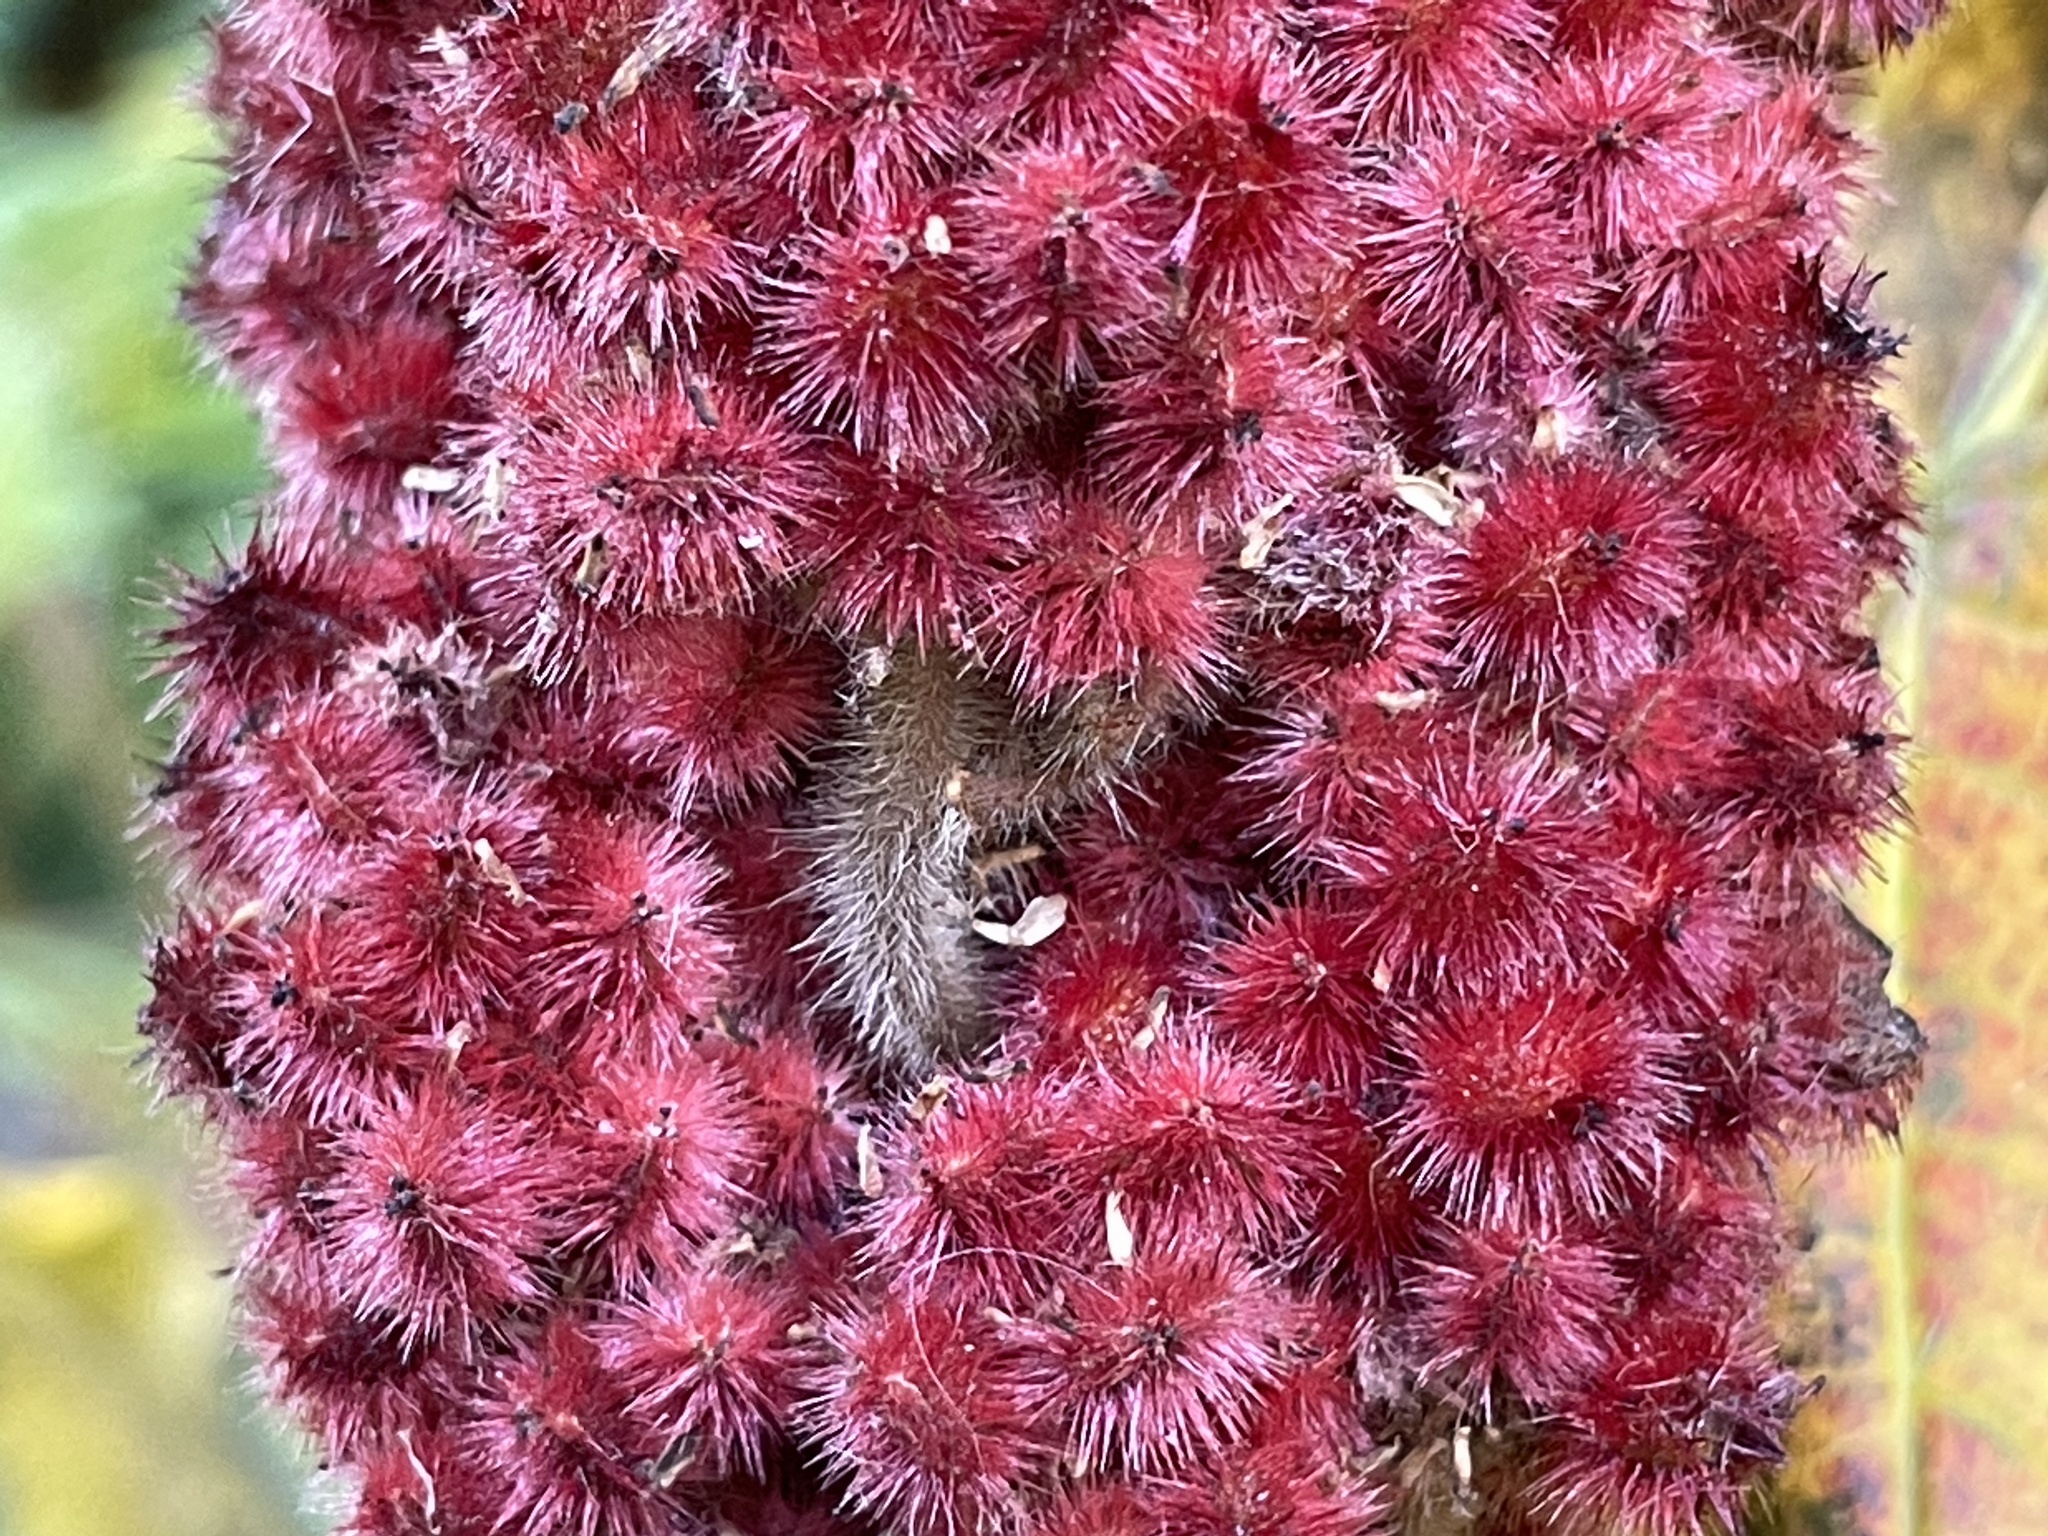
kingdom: Plantae
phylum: Tracheophyta
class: Magnoliopsida
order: Sapindales
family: Anacardiaceae
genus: Rhus
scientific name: Rhus typhina
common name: Staghorn sumac
